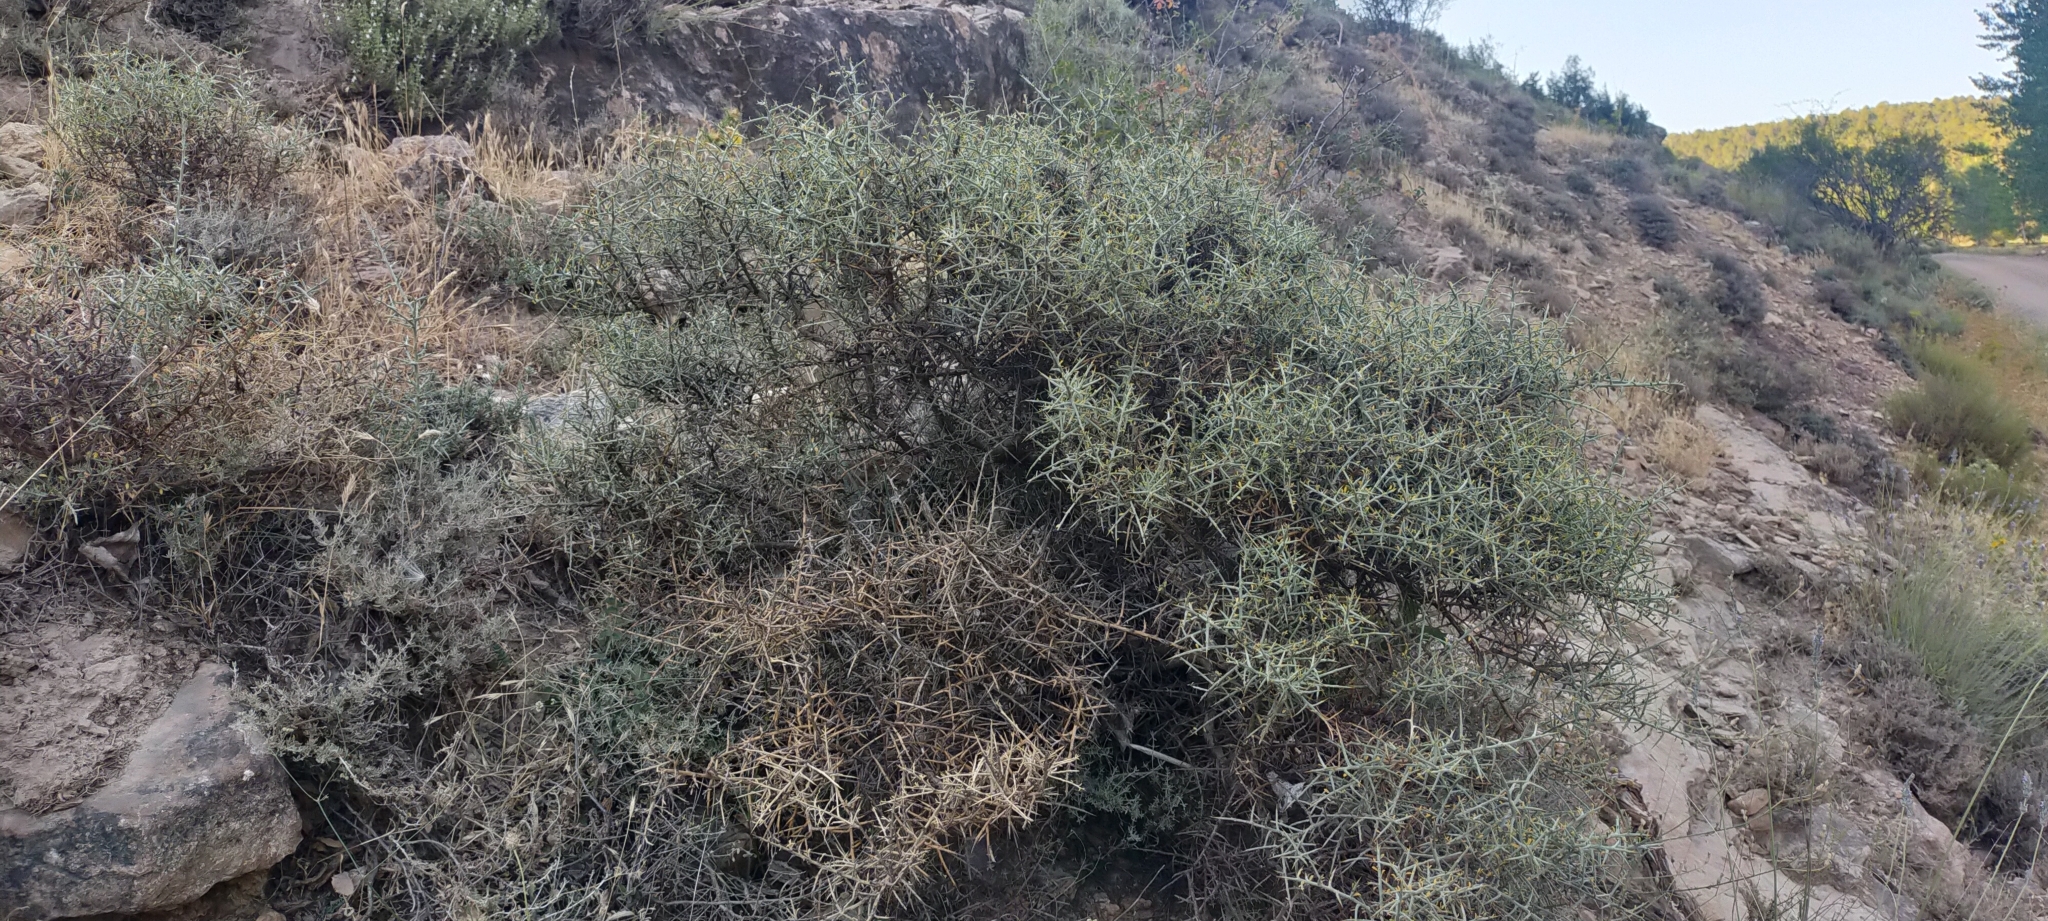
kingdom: Plantae
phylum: Tracheophyta
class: Magnoliopsida
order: Fabales
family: Fabaceae
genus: Genista
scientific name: Genista scorpius
